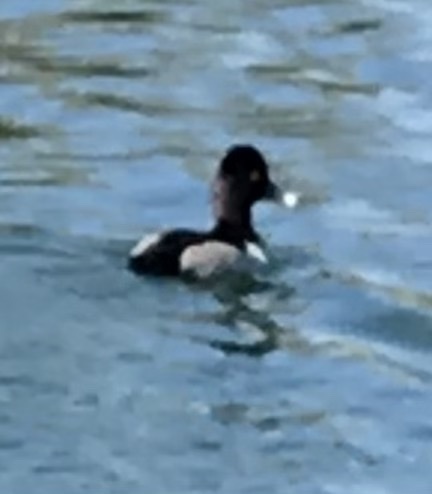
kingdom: Animalia
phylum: Chordata
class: Aves
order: Anseriformes
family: Anatidae
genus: Aythya
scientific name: Aythya collaris
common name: Ring-necked duck
